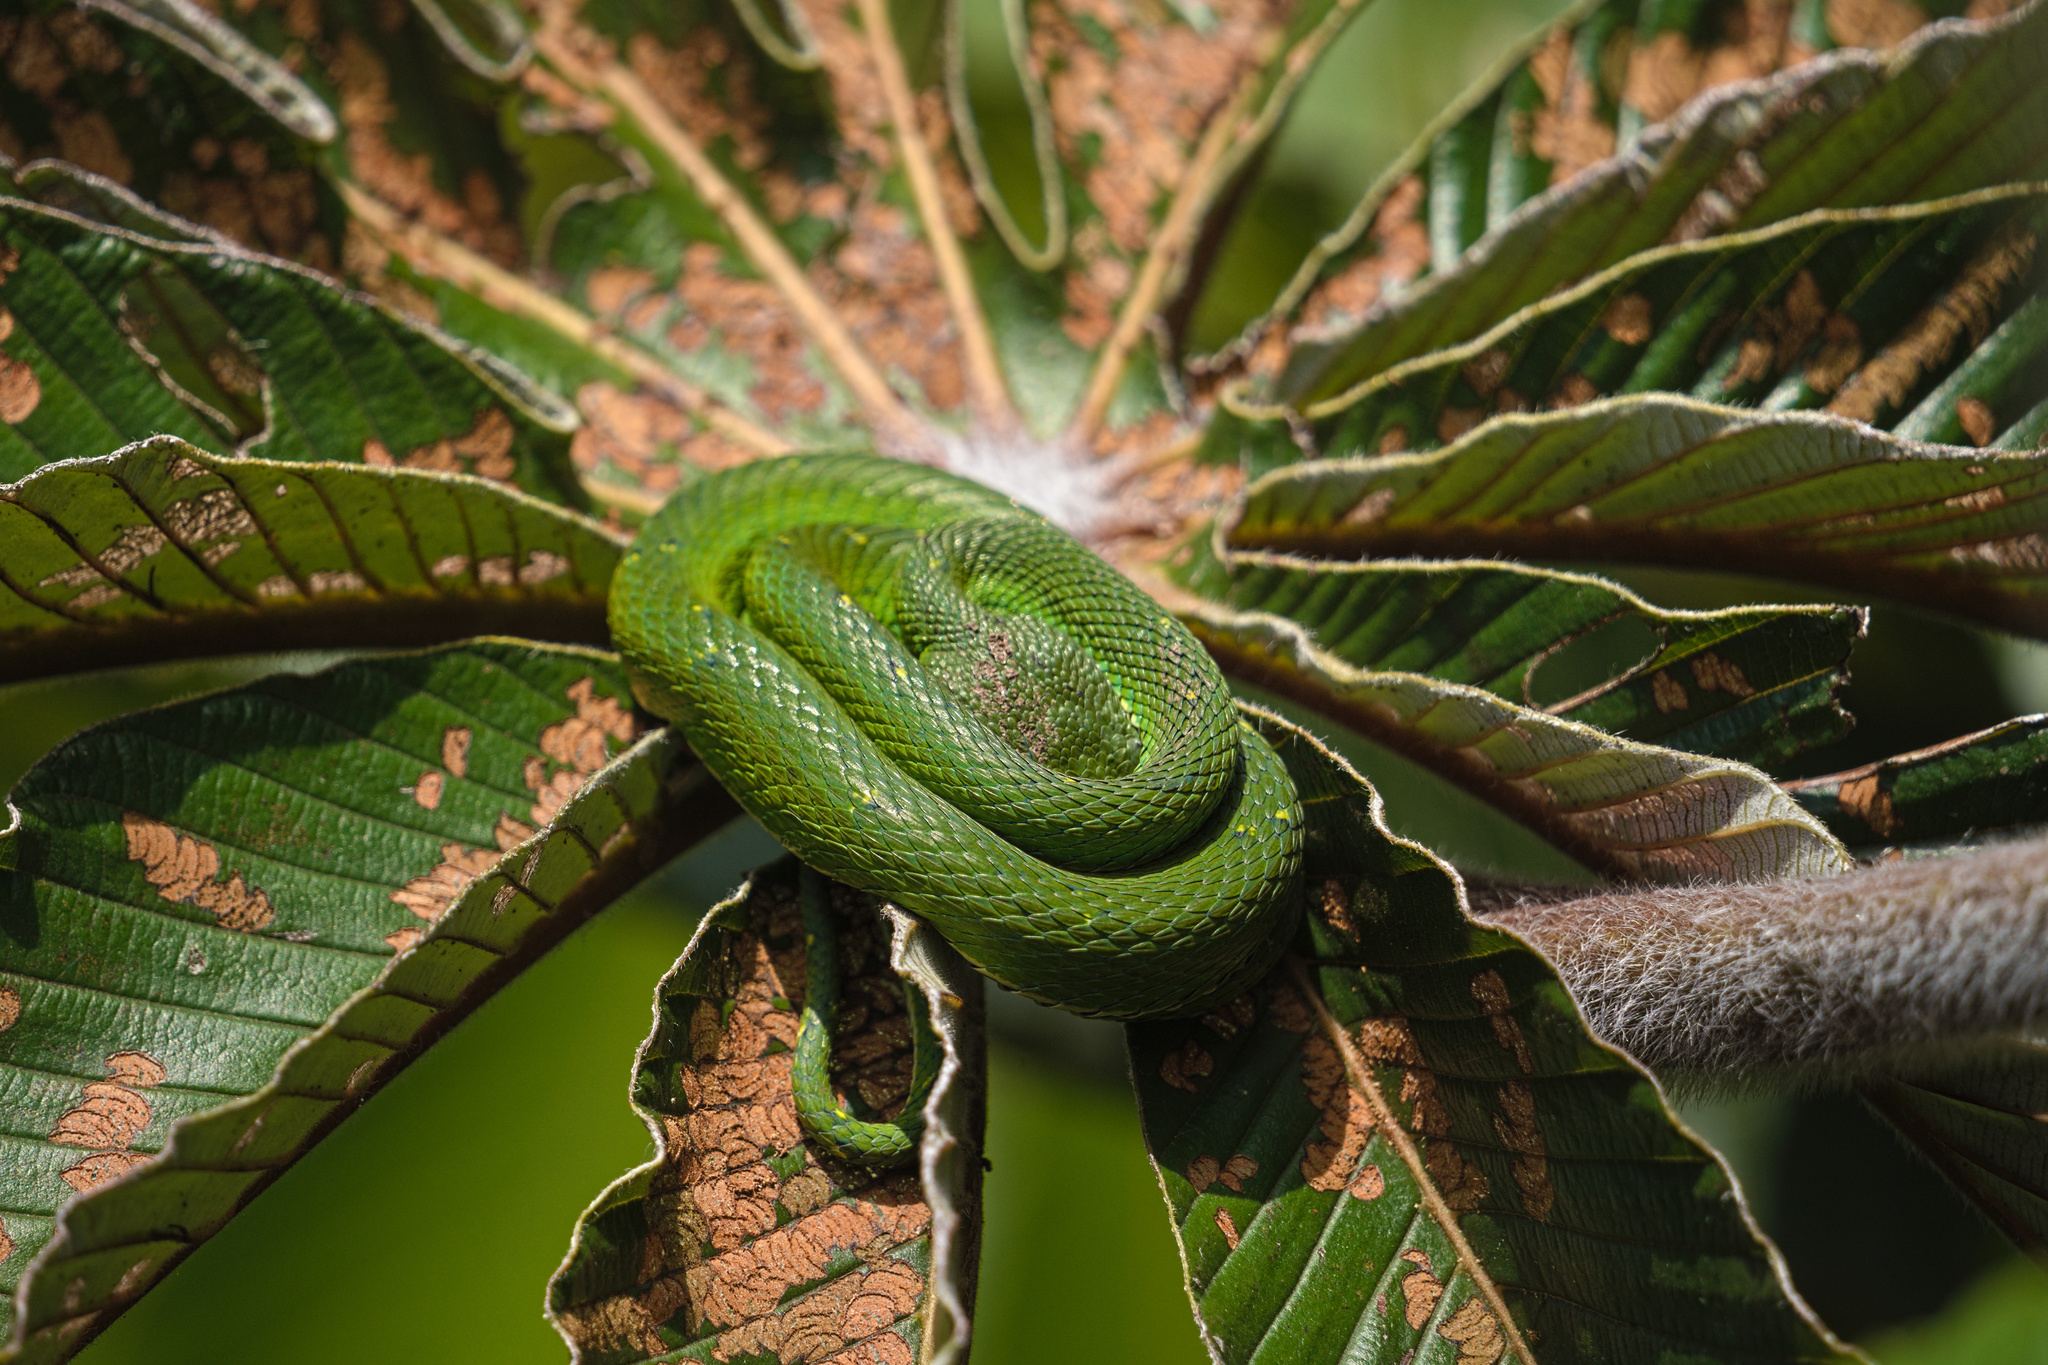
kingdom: Animalia
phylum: Chordata
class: Squamata
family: Viperidae
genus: Bothriechis
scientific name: Bothriechis lateralis
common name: Coffee palm viper
